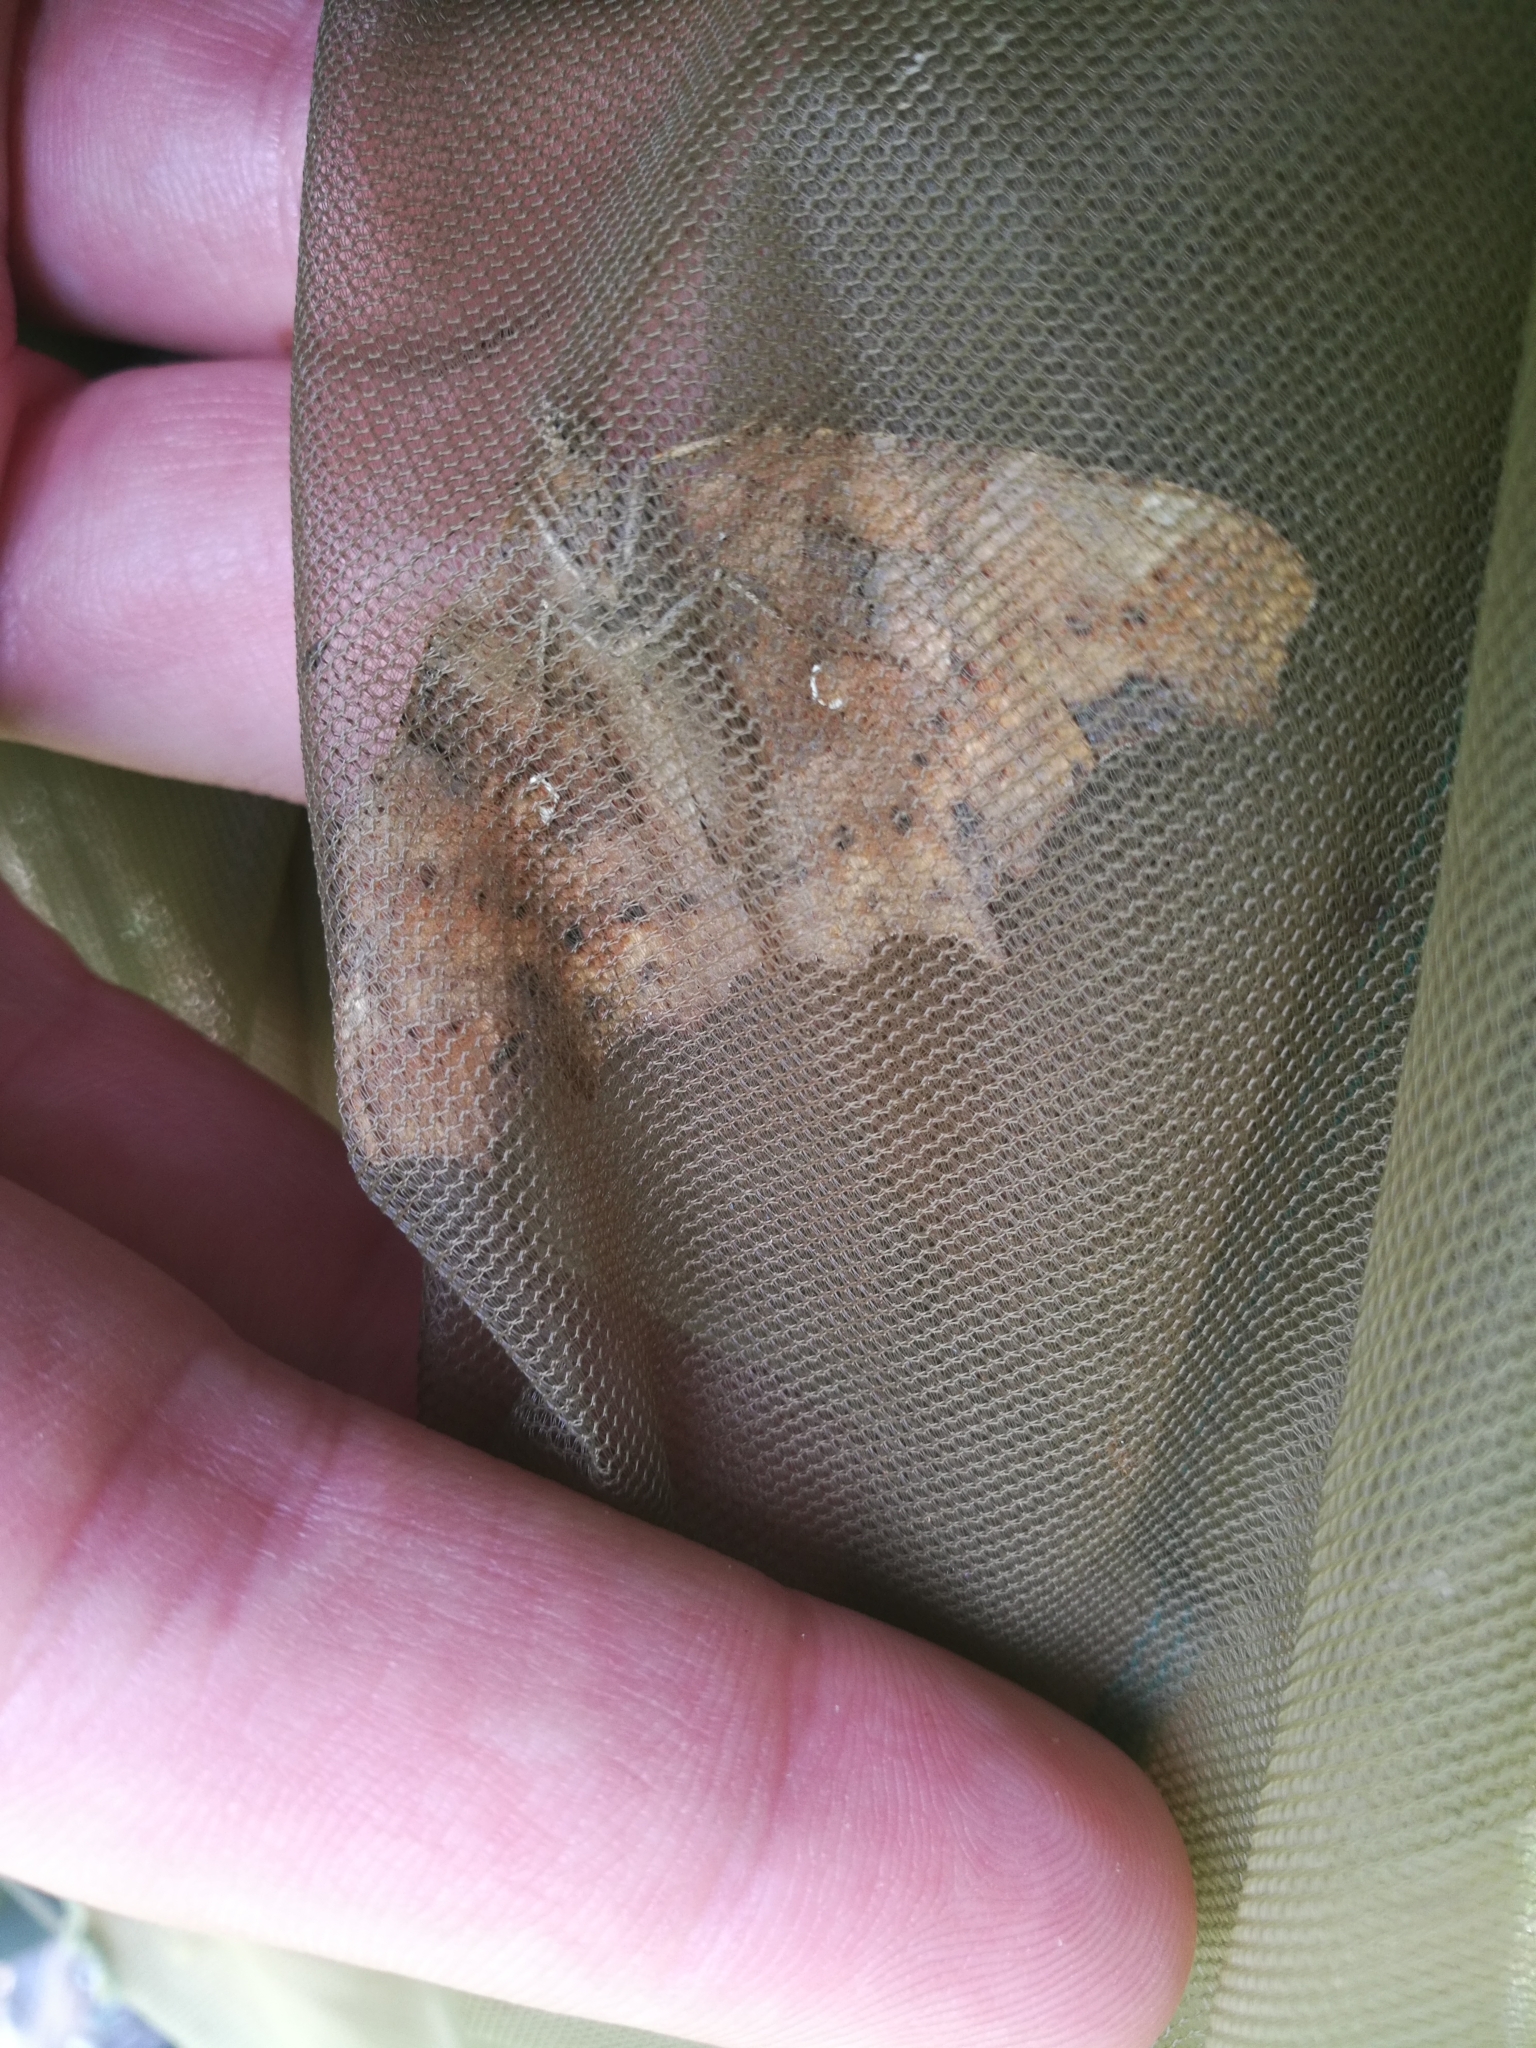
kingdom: Animalia
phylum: Arthropoda
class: Insecta
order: Lepidoptera
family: Nymphalidae
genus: Polygonia
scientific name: Polygonia c-album
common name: Comma
